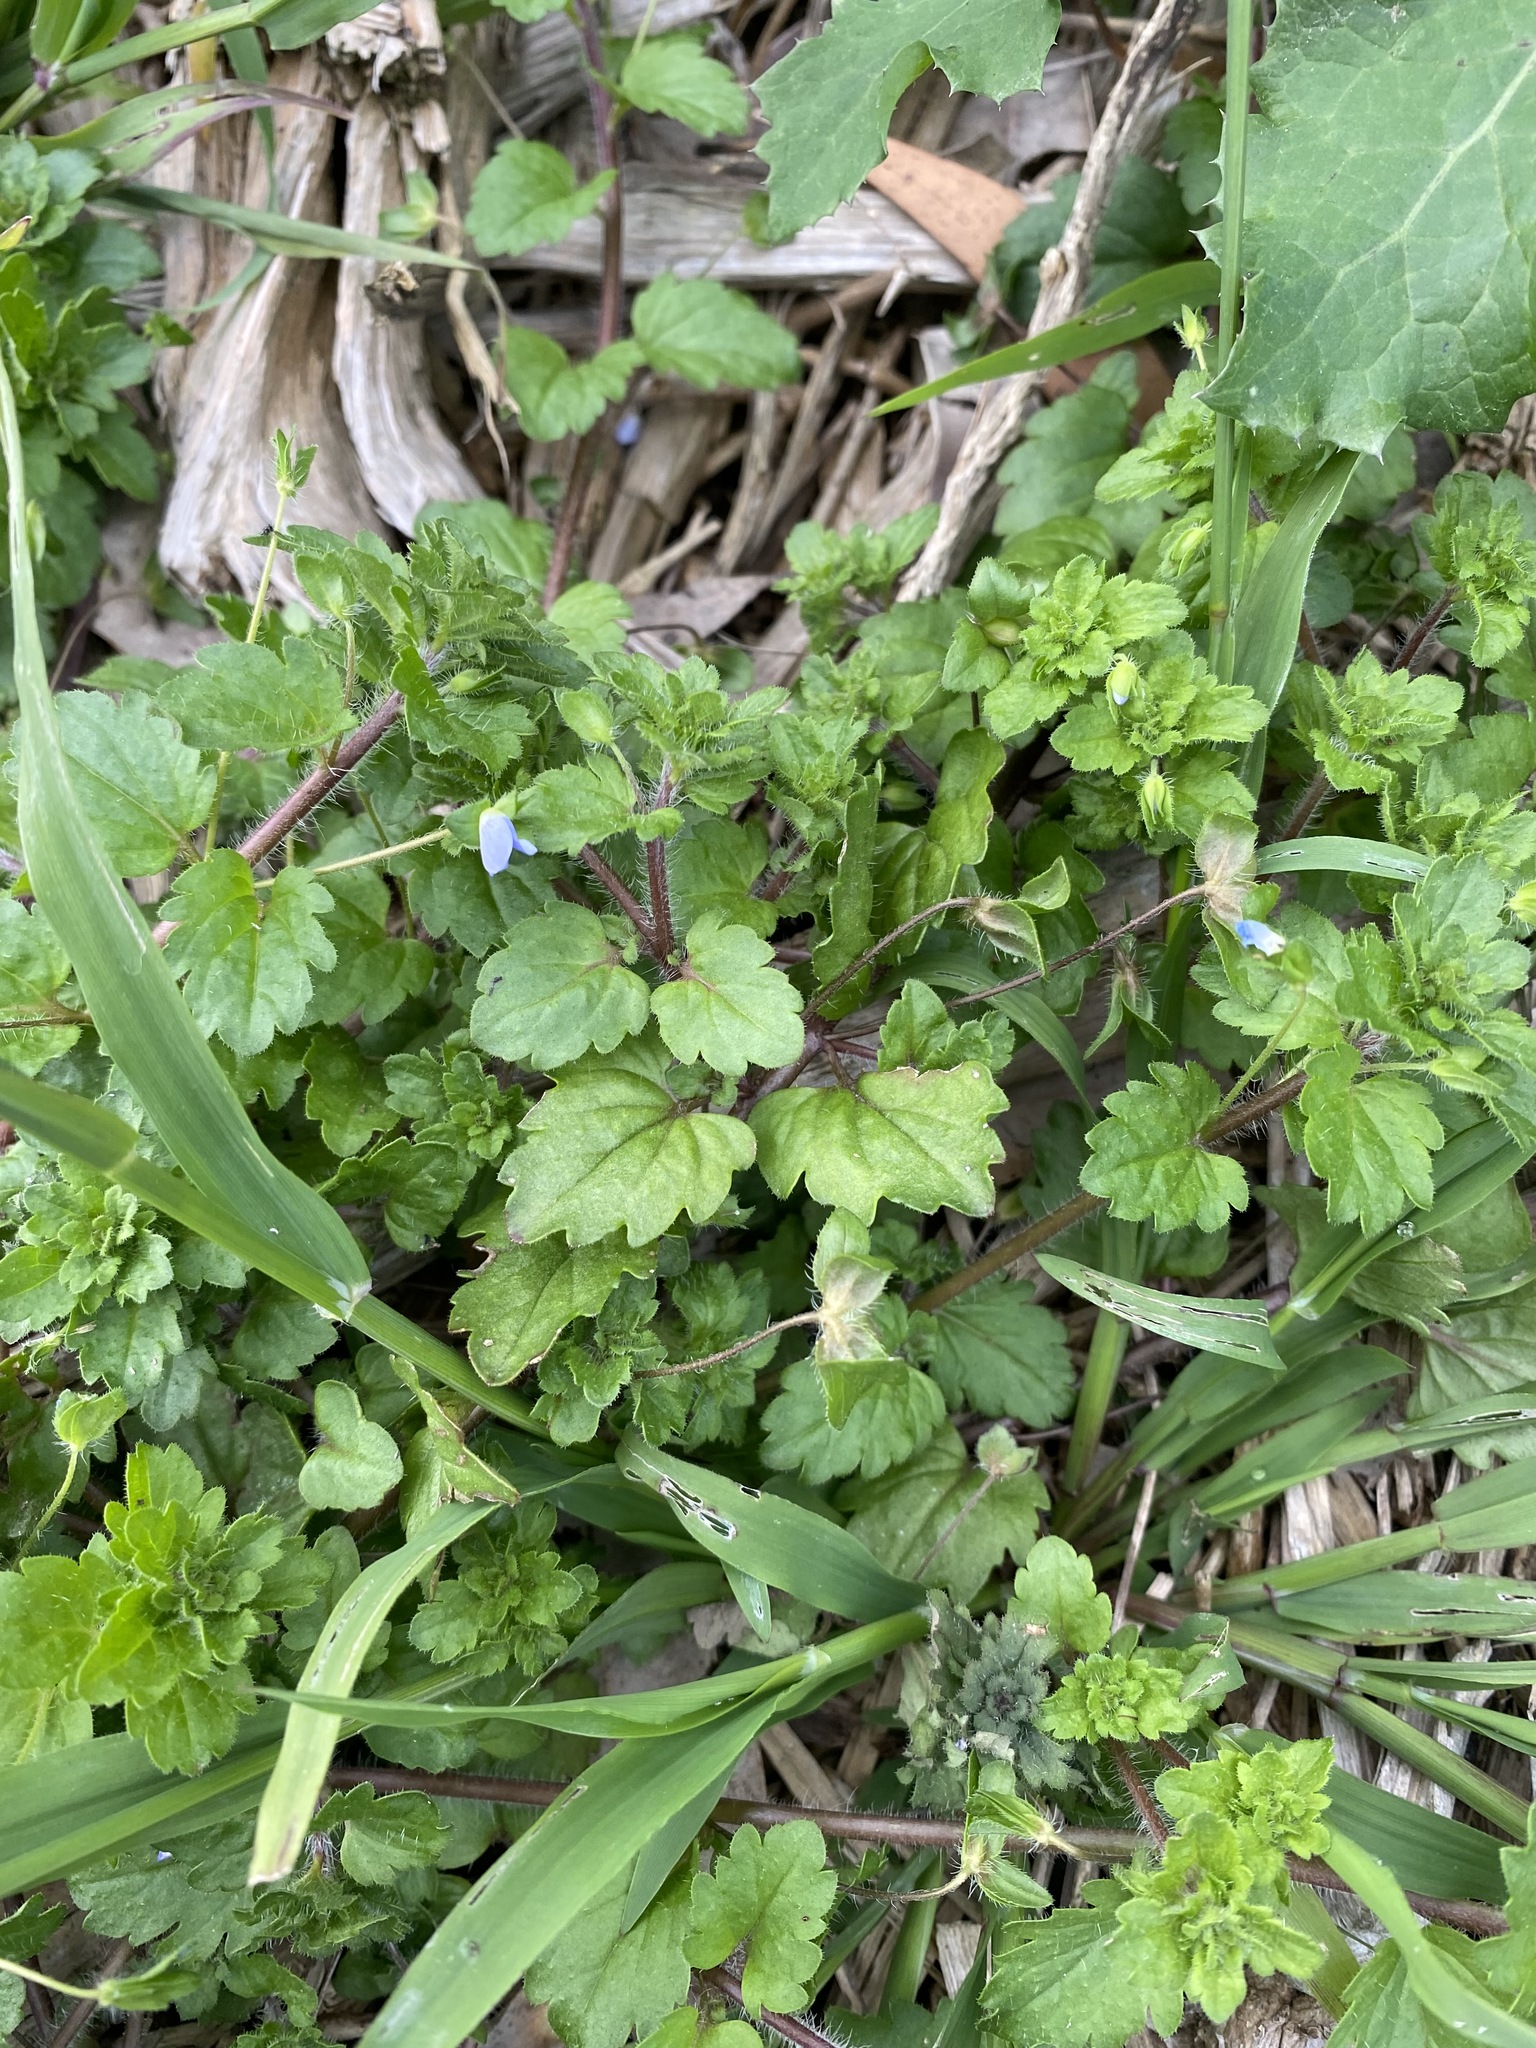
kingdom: Plantae
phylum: Tracheophyta
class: Magnoliopsida
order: Lamiales
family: Plantaginaceae
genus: Veronica
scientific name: Veronica persica
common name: Common field-speedwell
